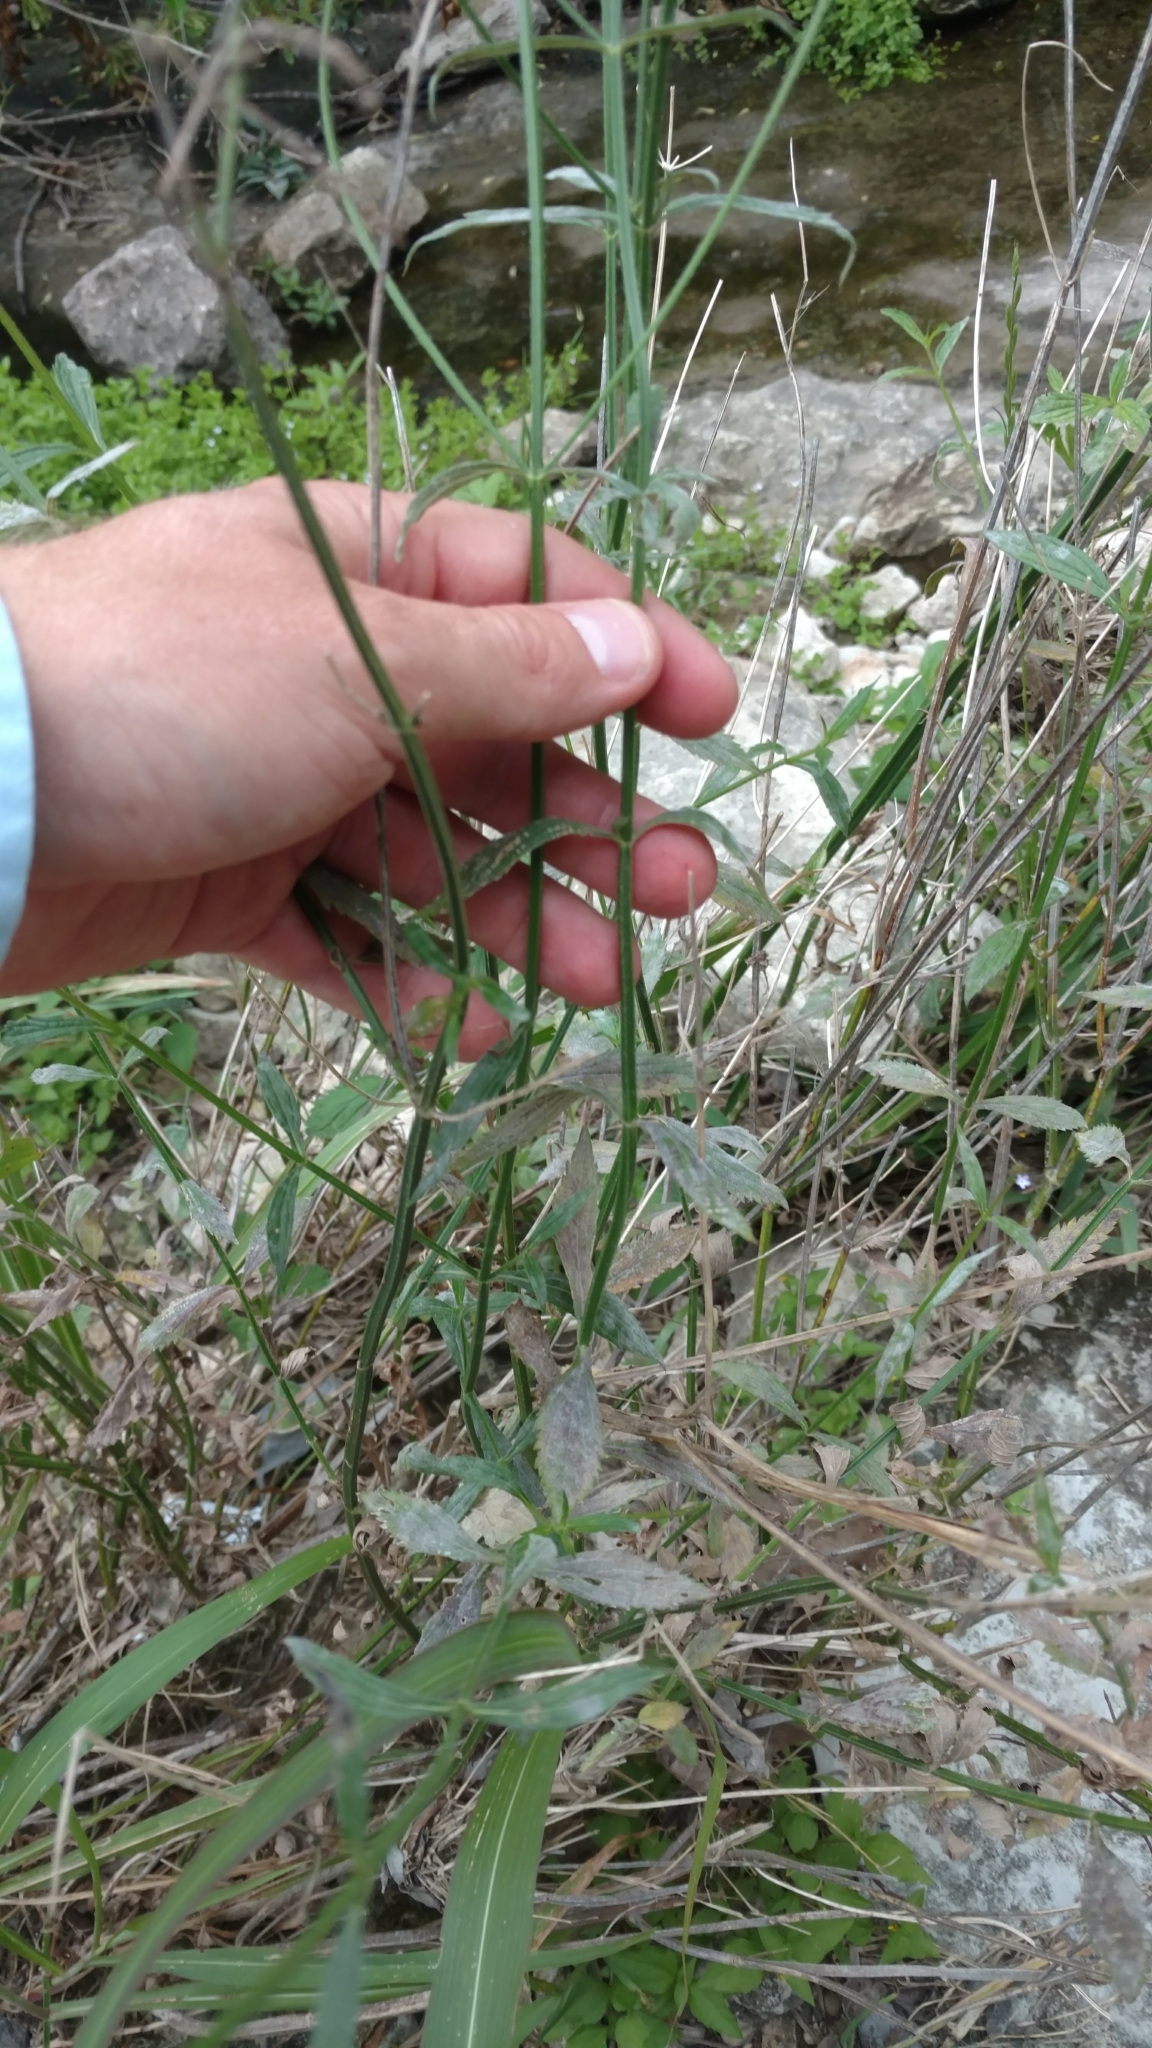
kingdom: Plantae
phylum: Tracheophyta
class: Magnoliopsida
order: Lamiales
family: Verbenaceae
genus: Verbena
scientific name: Verbena brasiliensis
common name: Brazilian vervain
